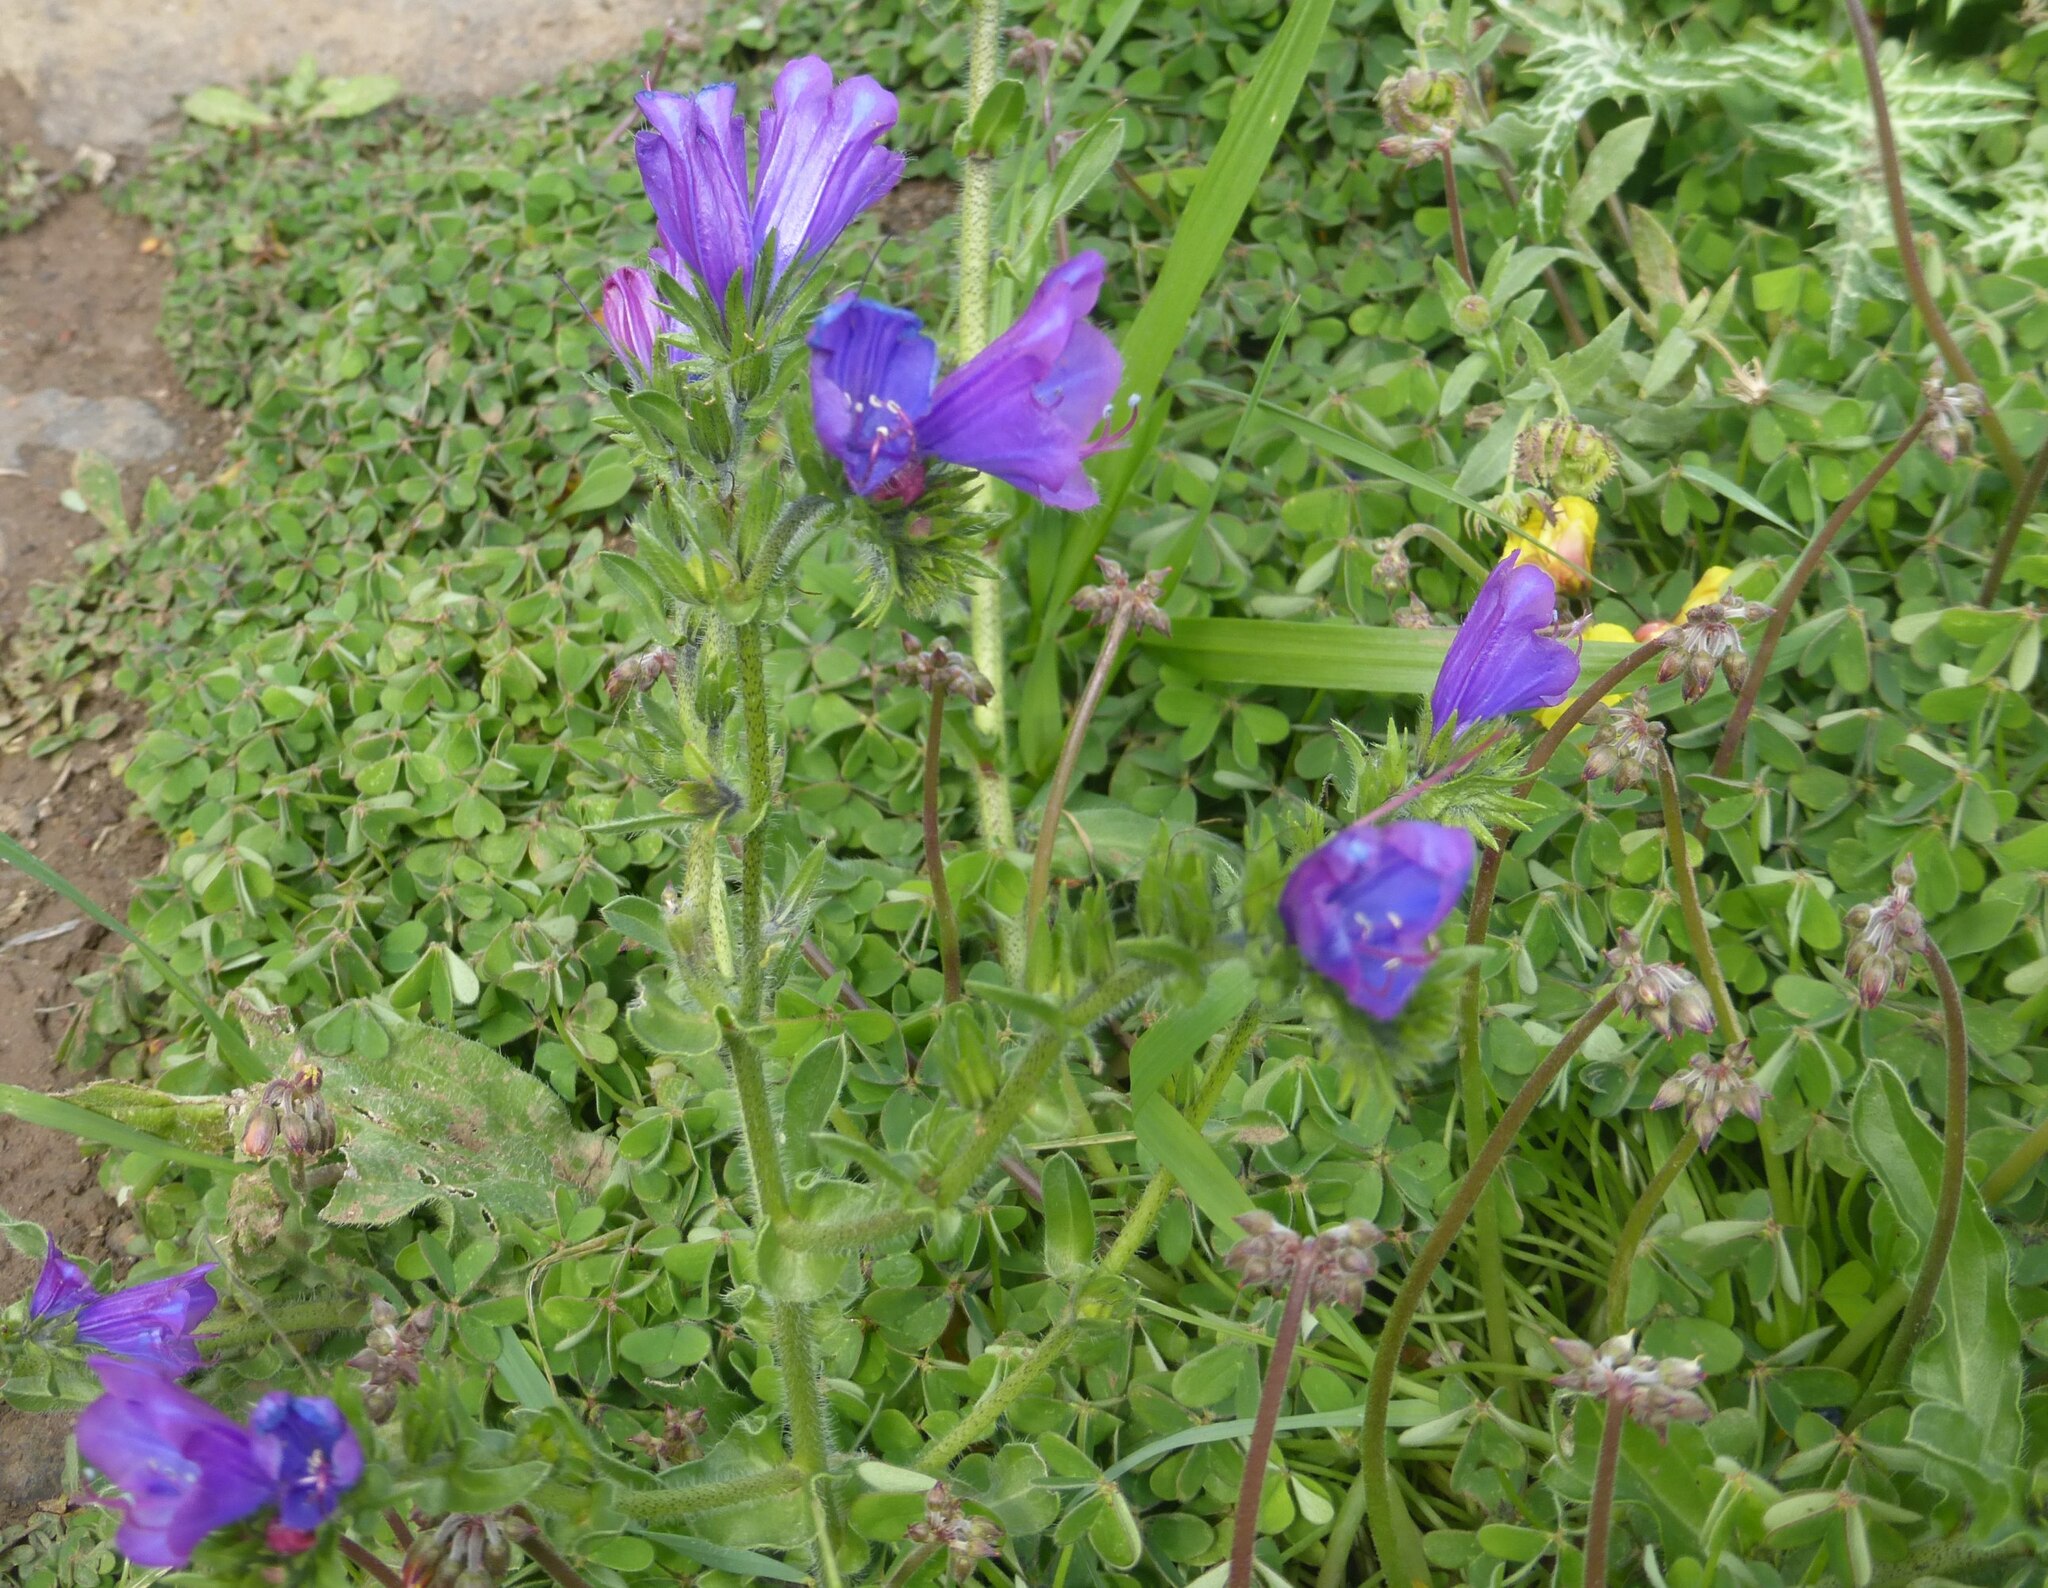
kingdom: Plantae
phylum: Tracheophyta
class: Magnoliopsida
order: Boraginales
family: Boraginaceae
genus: Echium
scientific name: Echium plantagineum
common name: Purple viper's-bugloss
